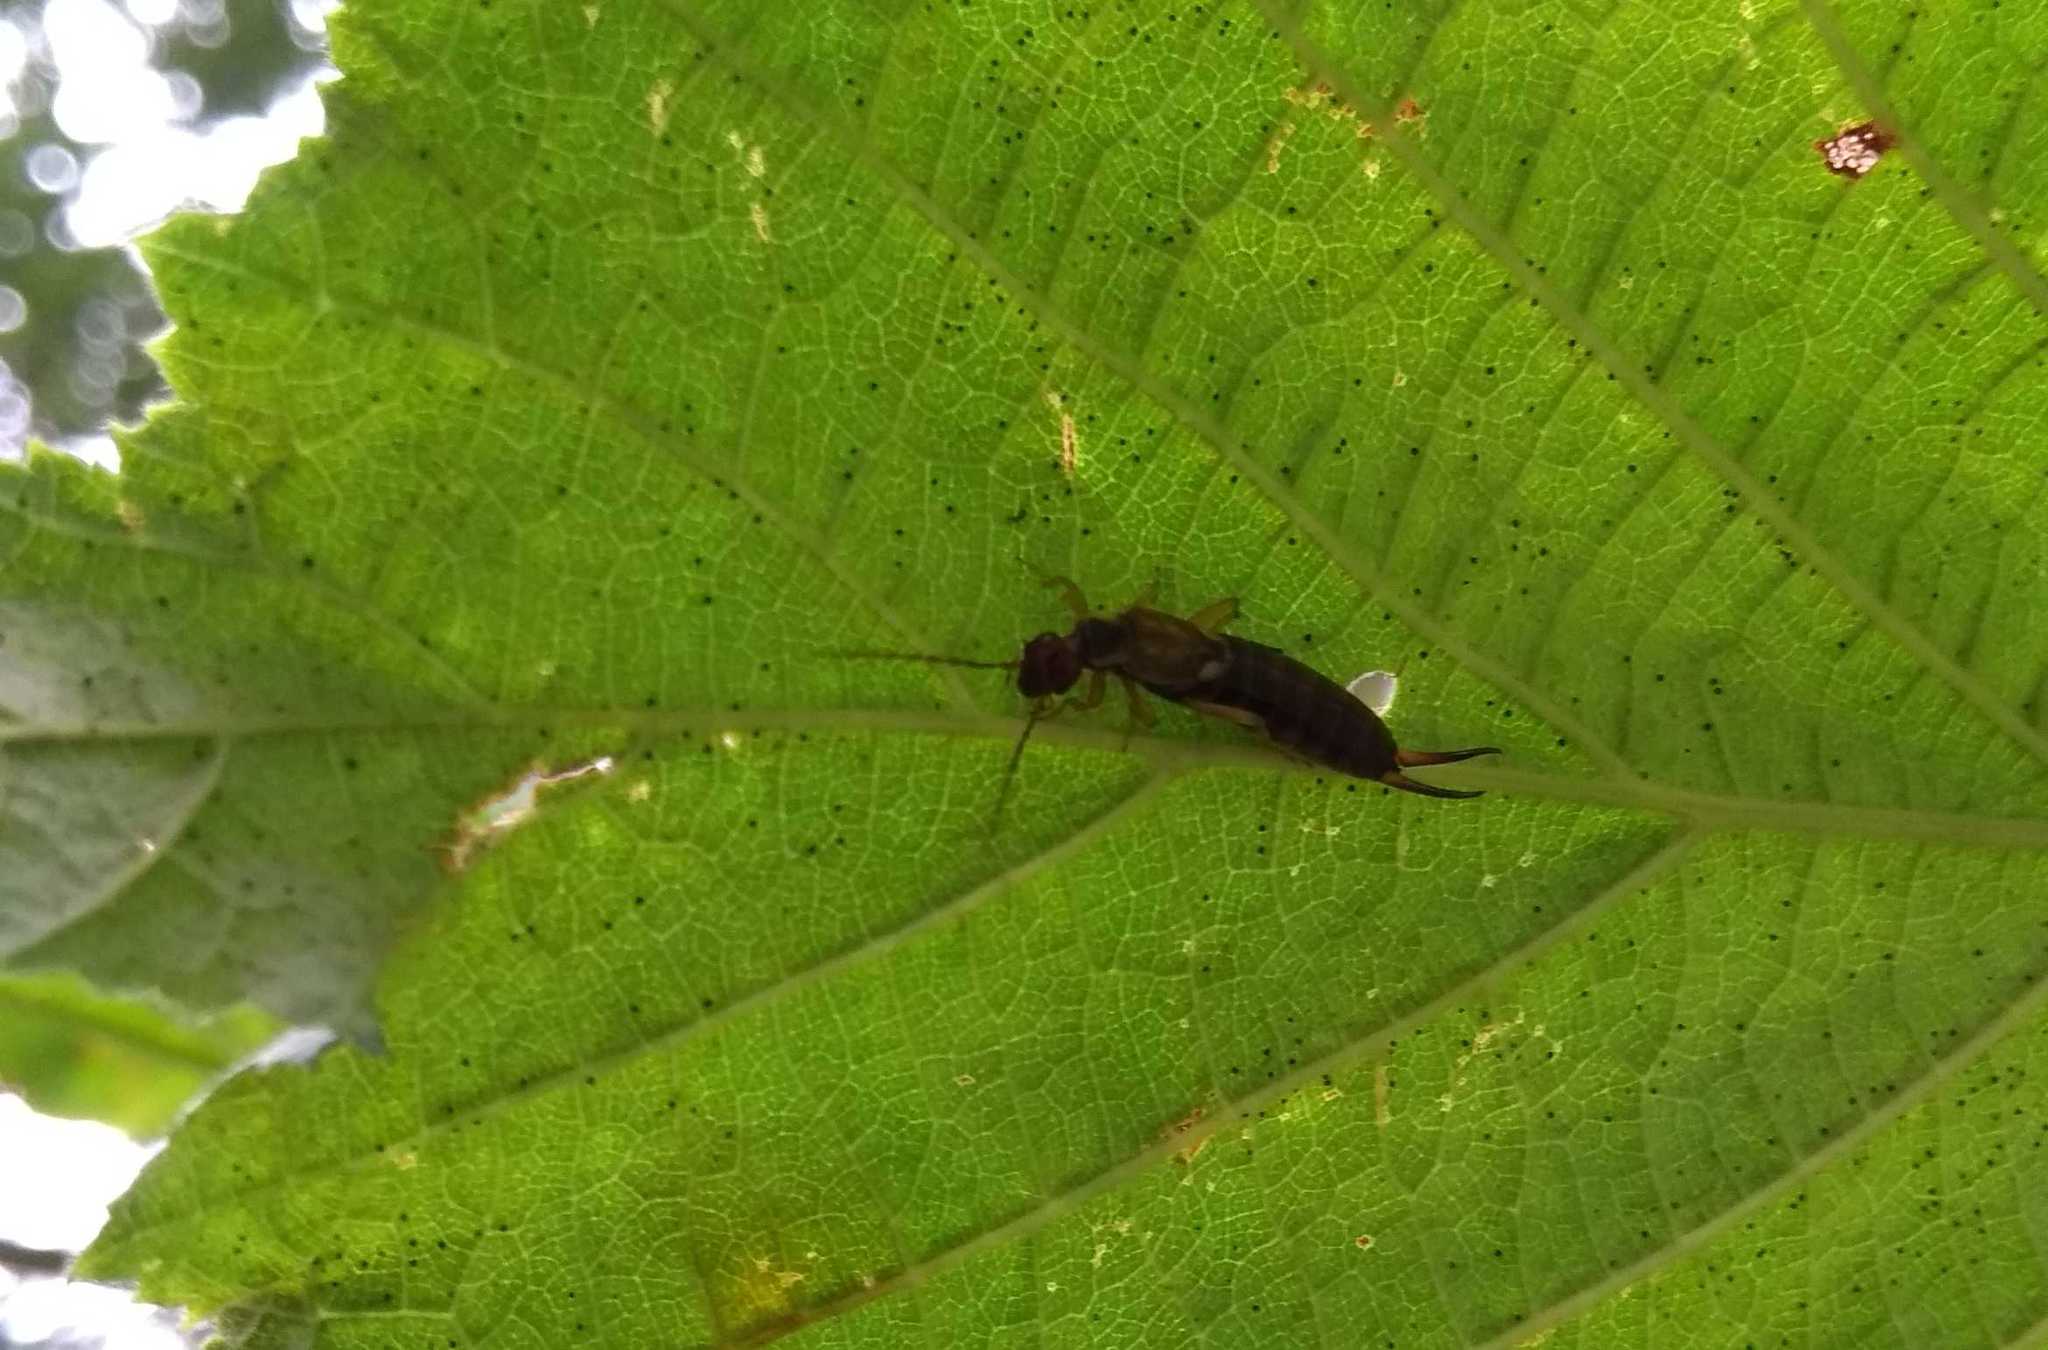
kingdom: Animalia
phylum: Arthropoda
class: Insecta
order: Dermaptera
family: Forficulidae
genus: Forficula
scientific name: Forficula
